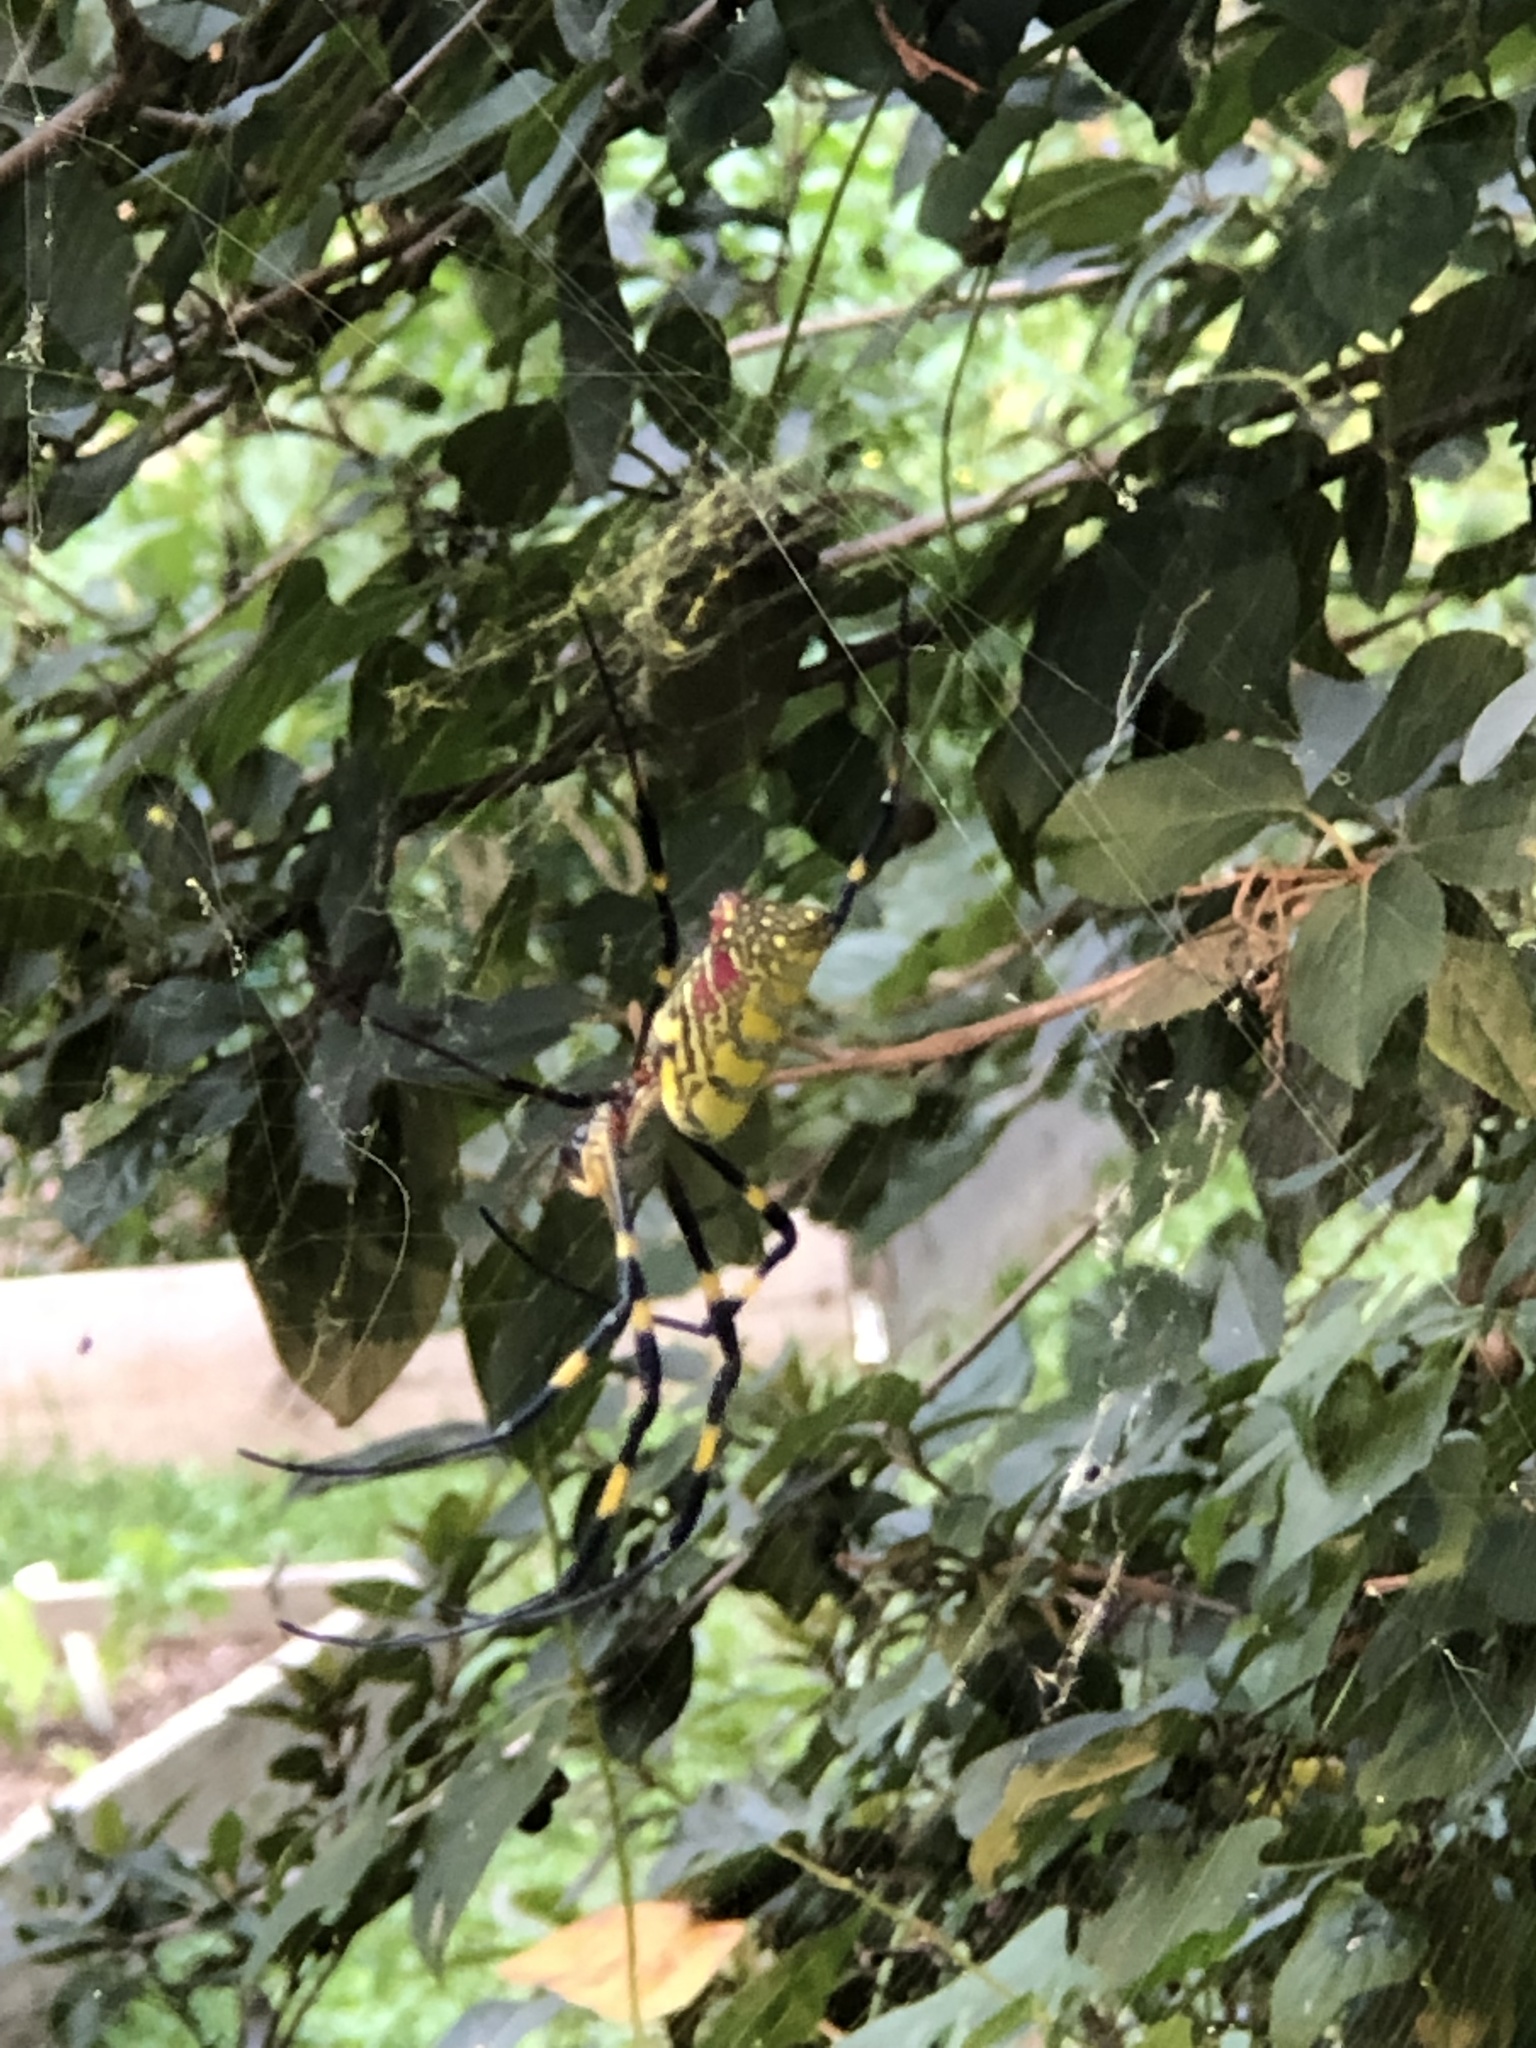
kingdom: Animalia
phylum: Arthropoda
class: Arachnida
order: Araneae
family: Araneidae
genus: Trichonephila
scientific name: Trichonephila clavata
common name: Jorō spider
